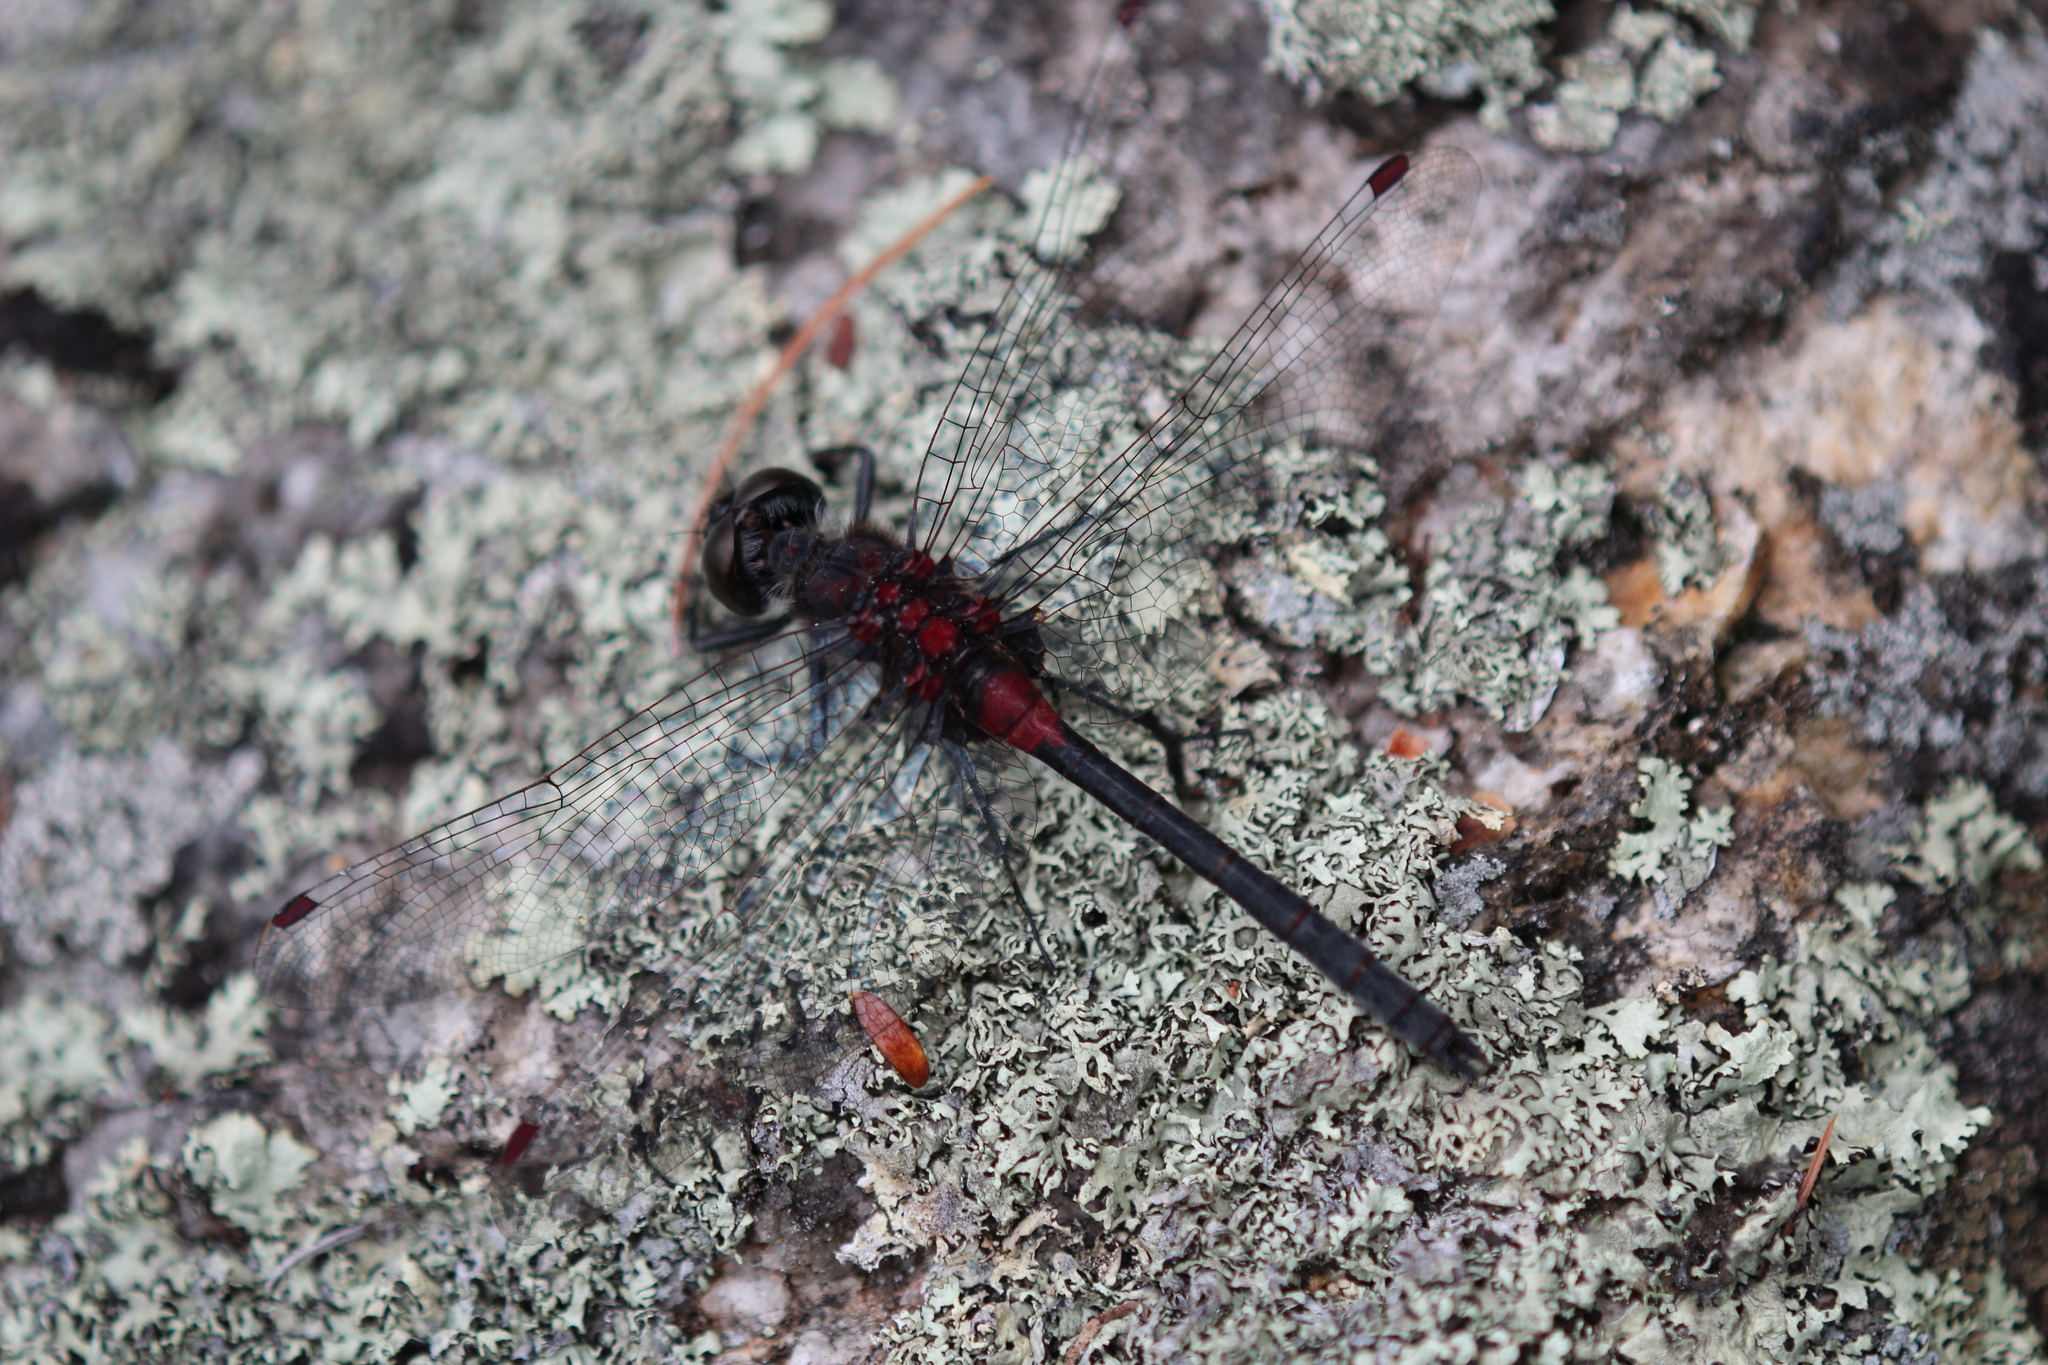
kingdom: Animalia
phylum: Arthropoda
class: Insecta
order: Odonata
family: Libellulidae
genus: Leucorrhinia
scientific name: Leucorrhinia glacialis
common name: Crimson-ringed whiteface
